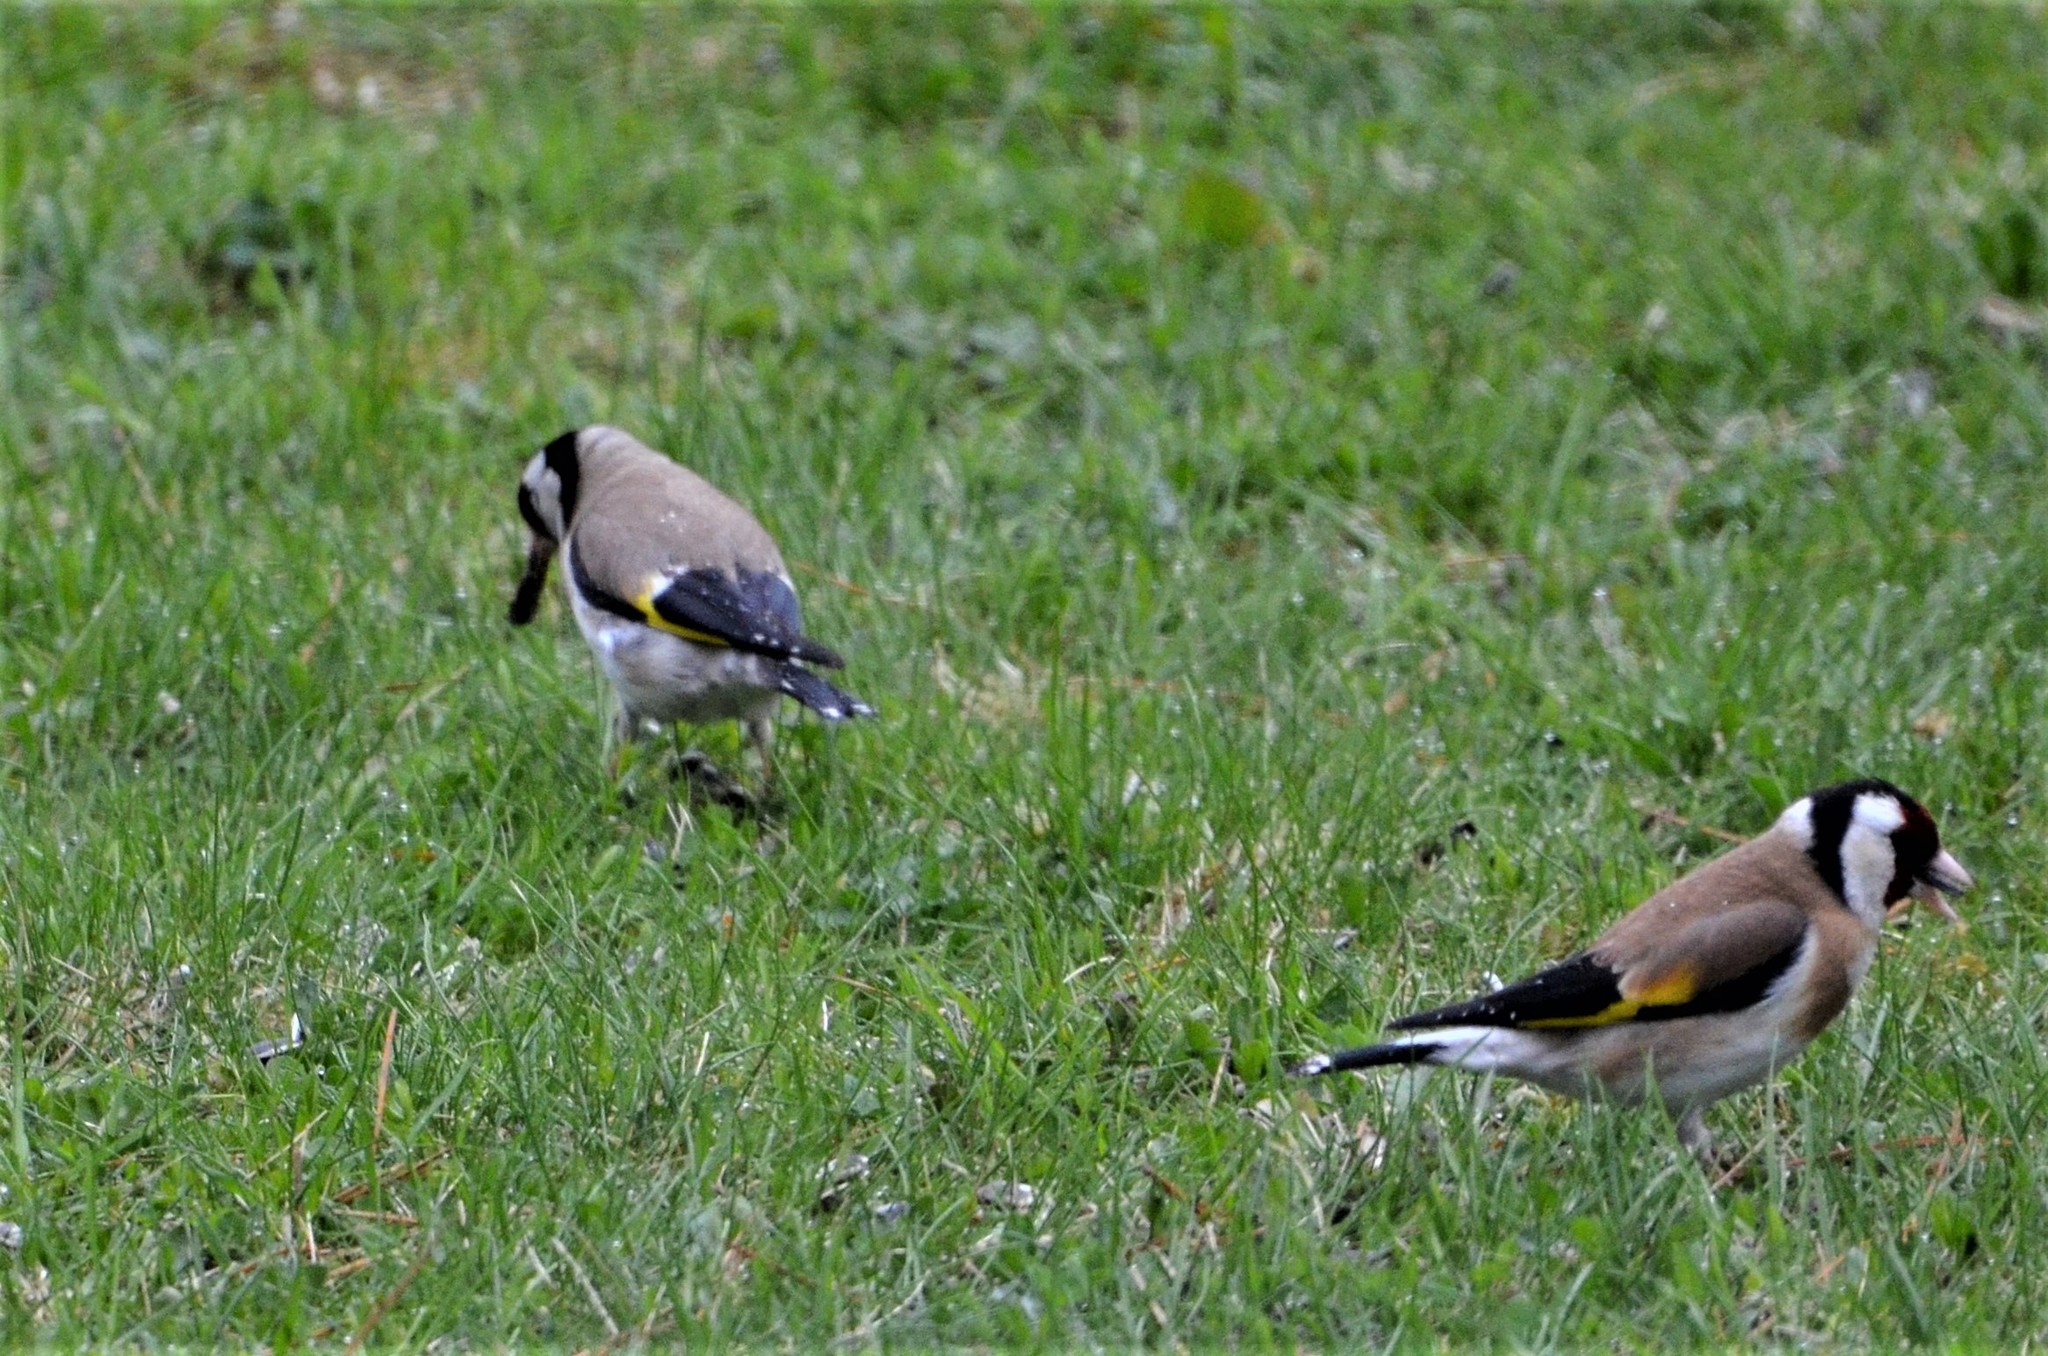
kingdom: Animalia
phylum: Chordata
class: Aves
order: Passeriformes
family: Fringillidae
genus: Carduelis
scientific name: Carduelis carduelis
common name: European goldfinch
